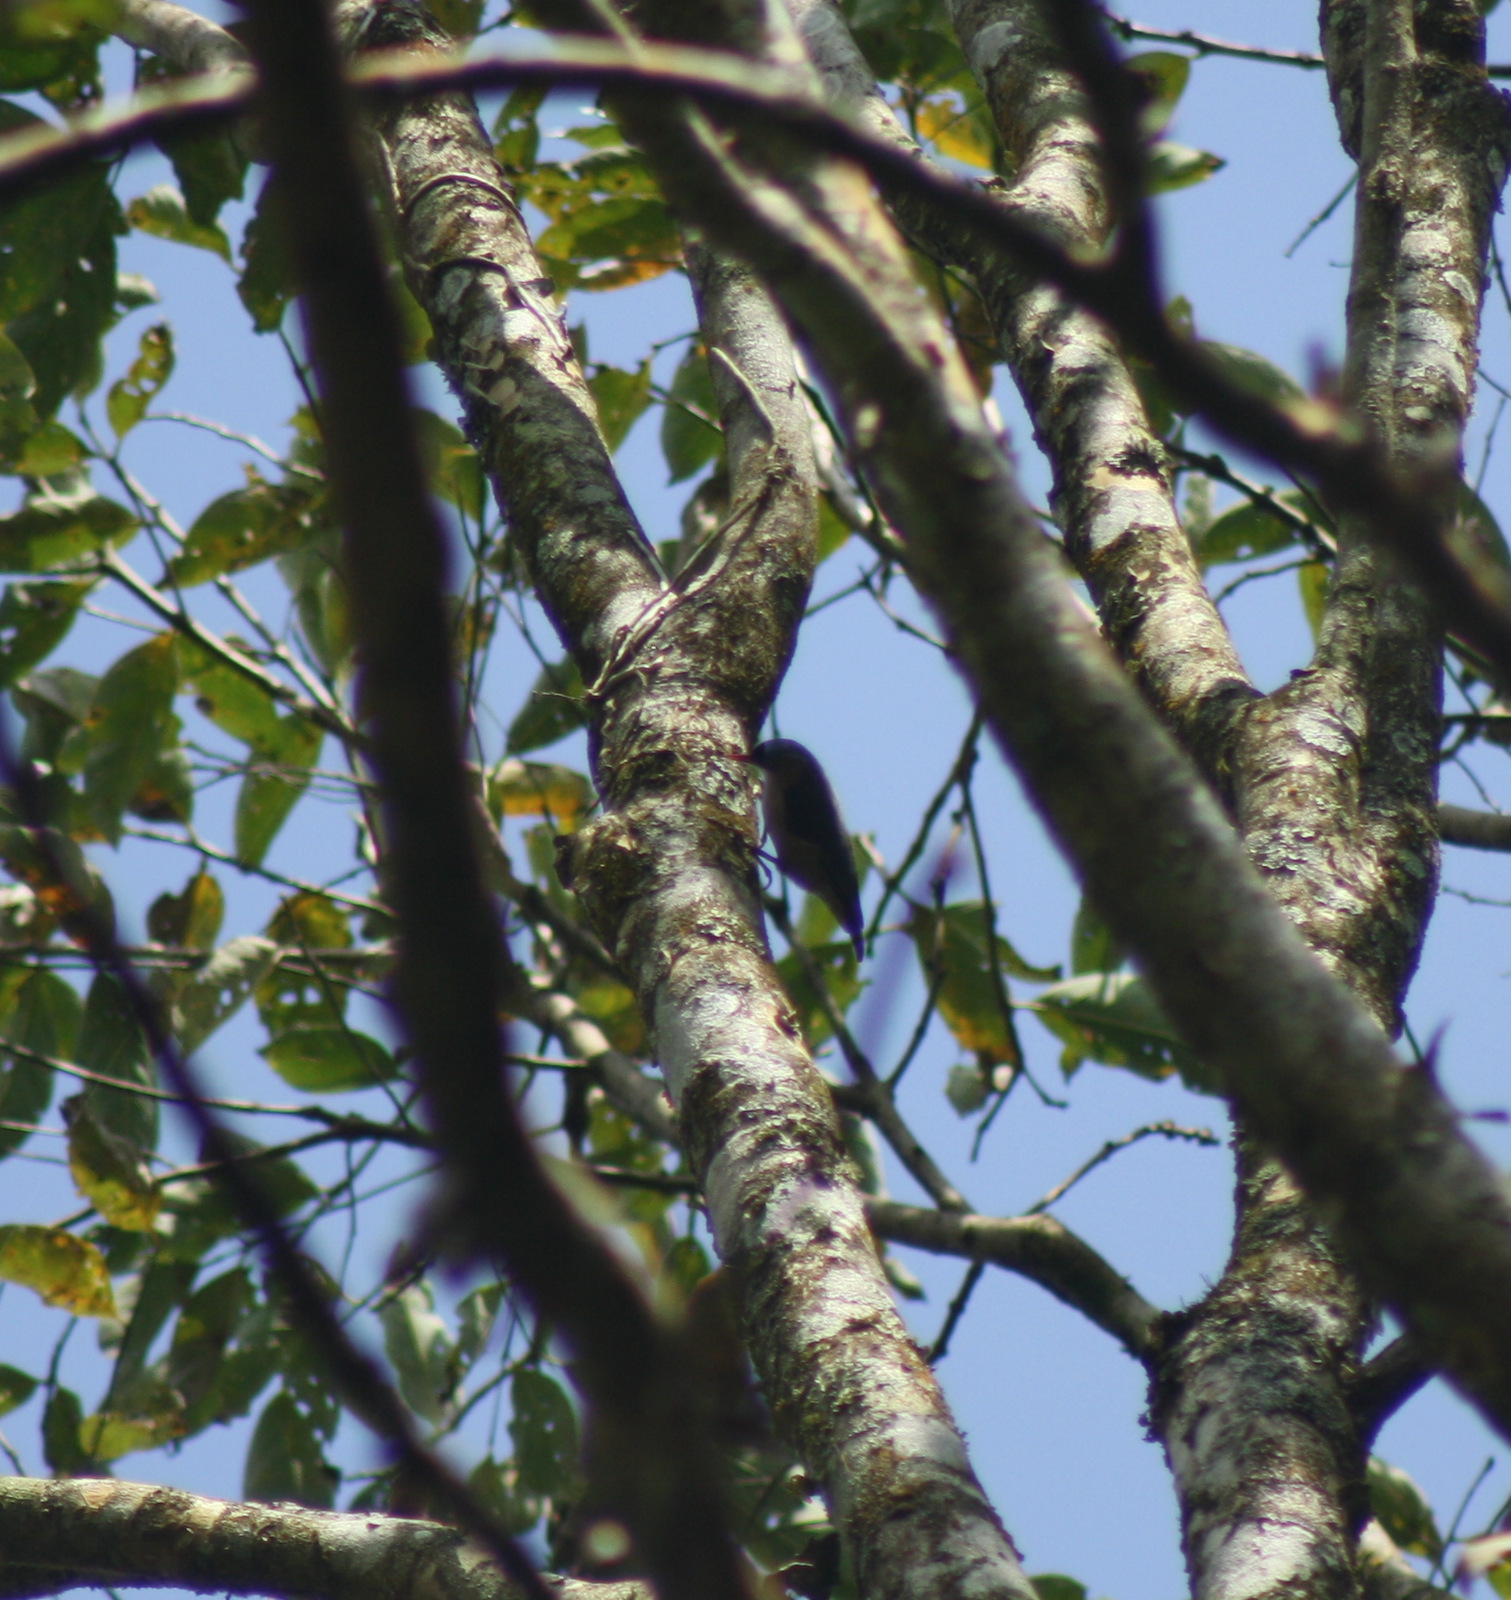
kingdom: Animalia
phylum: Chordata
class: Aves
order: Passeriformes
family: Sittidae
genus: Sitta
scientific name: Sitta frontalis
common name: Velvet-fronted nuthatch
